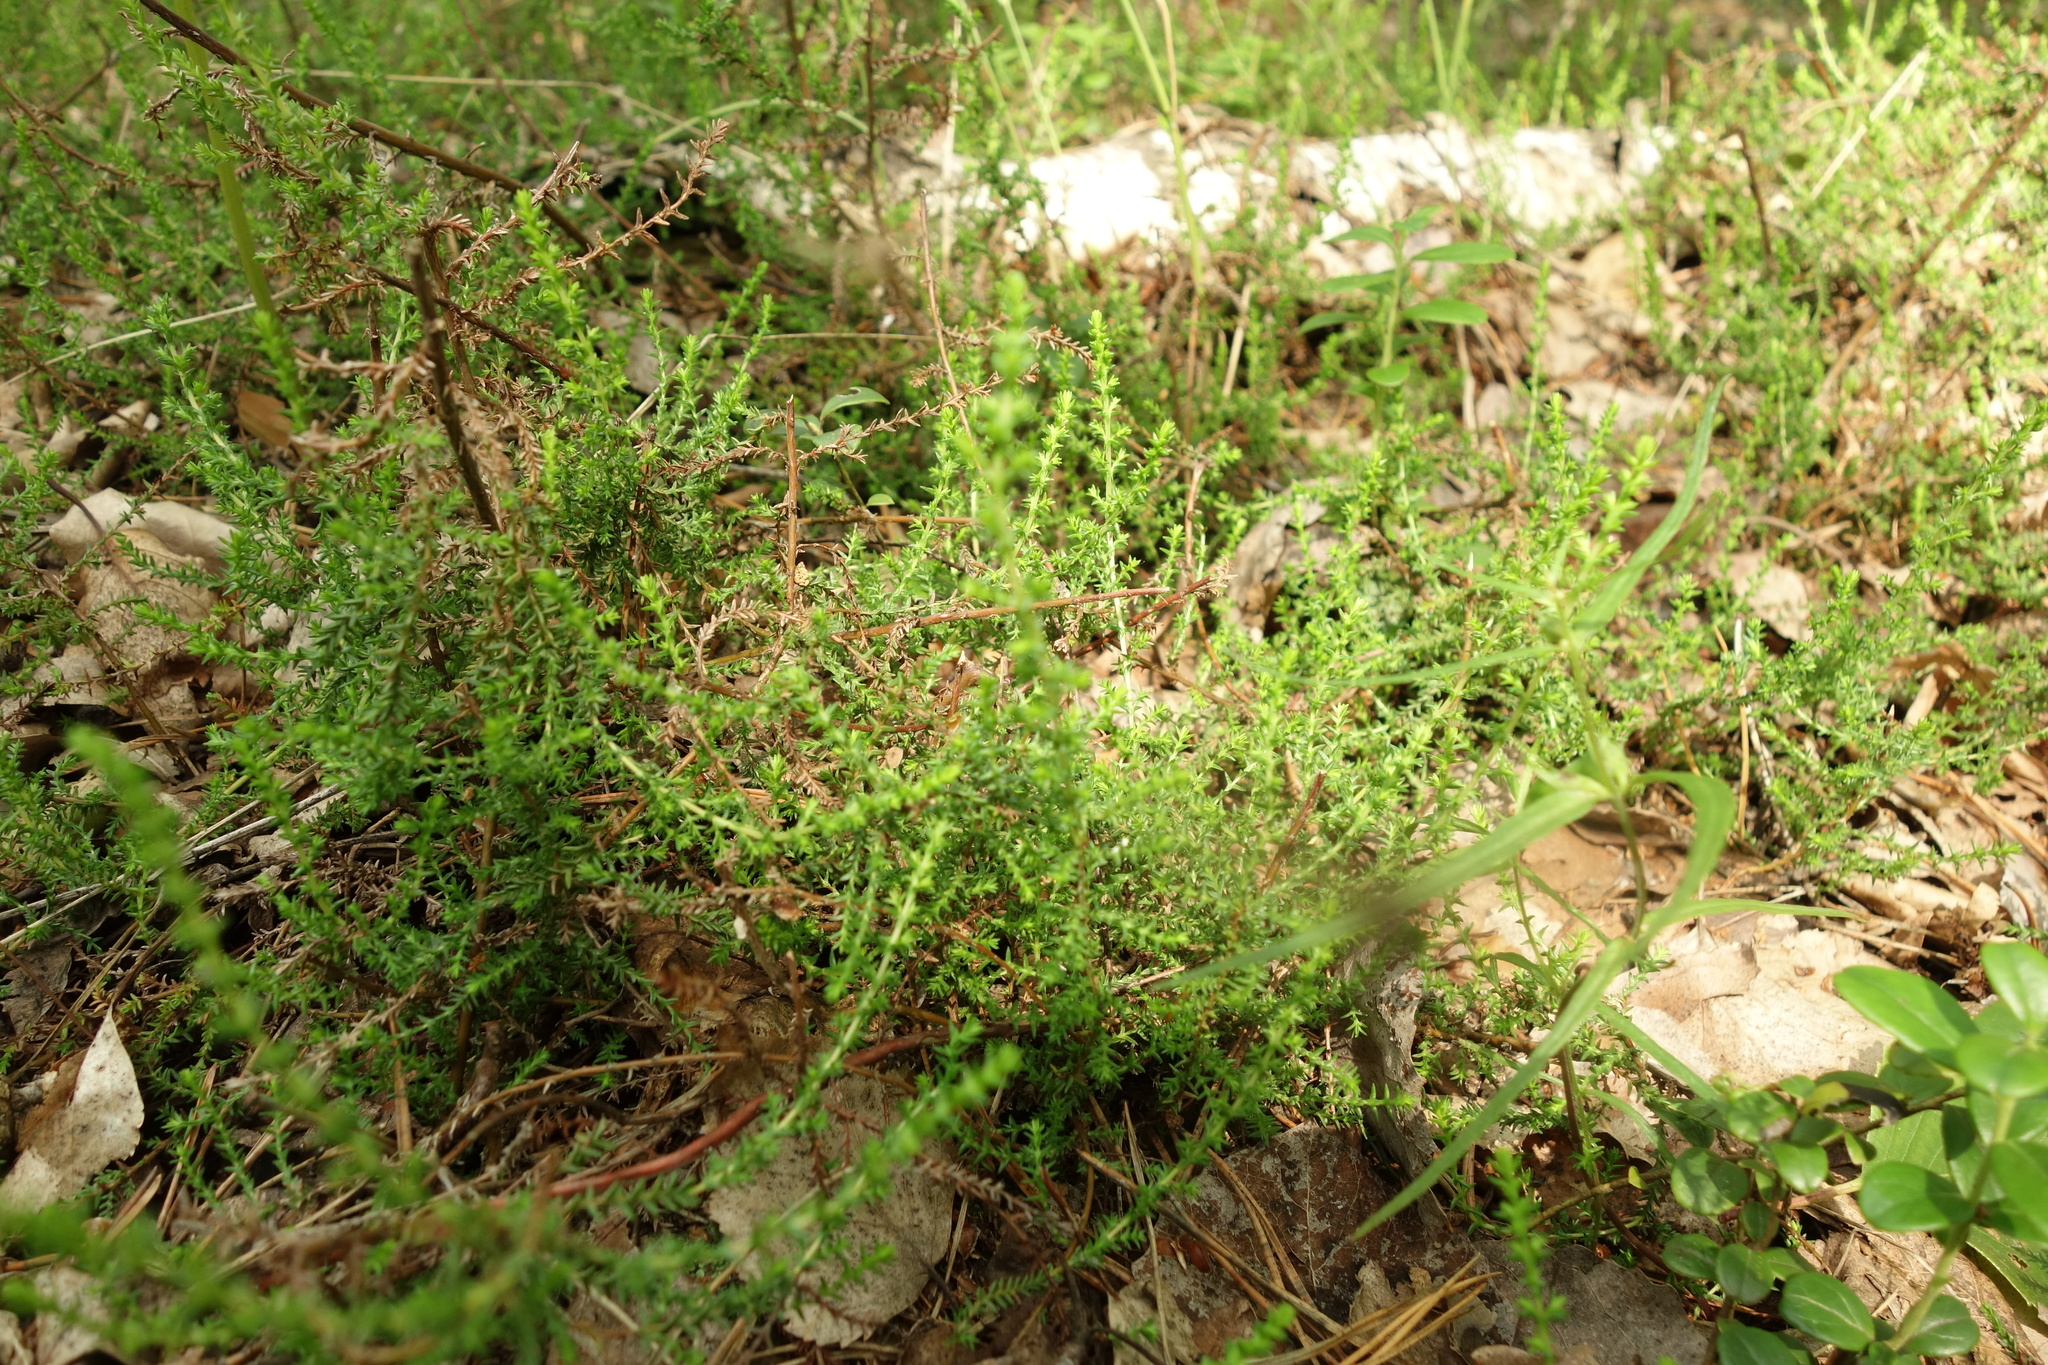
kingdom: Plantae
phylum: Tracheophyta
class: Magnoliopsida
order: Ericales
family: Ericaceae
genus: Calluna
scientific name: Calluna vulgaris
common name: Heather
